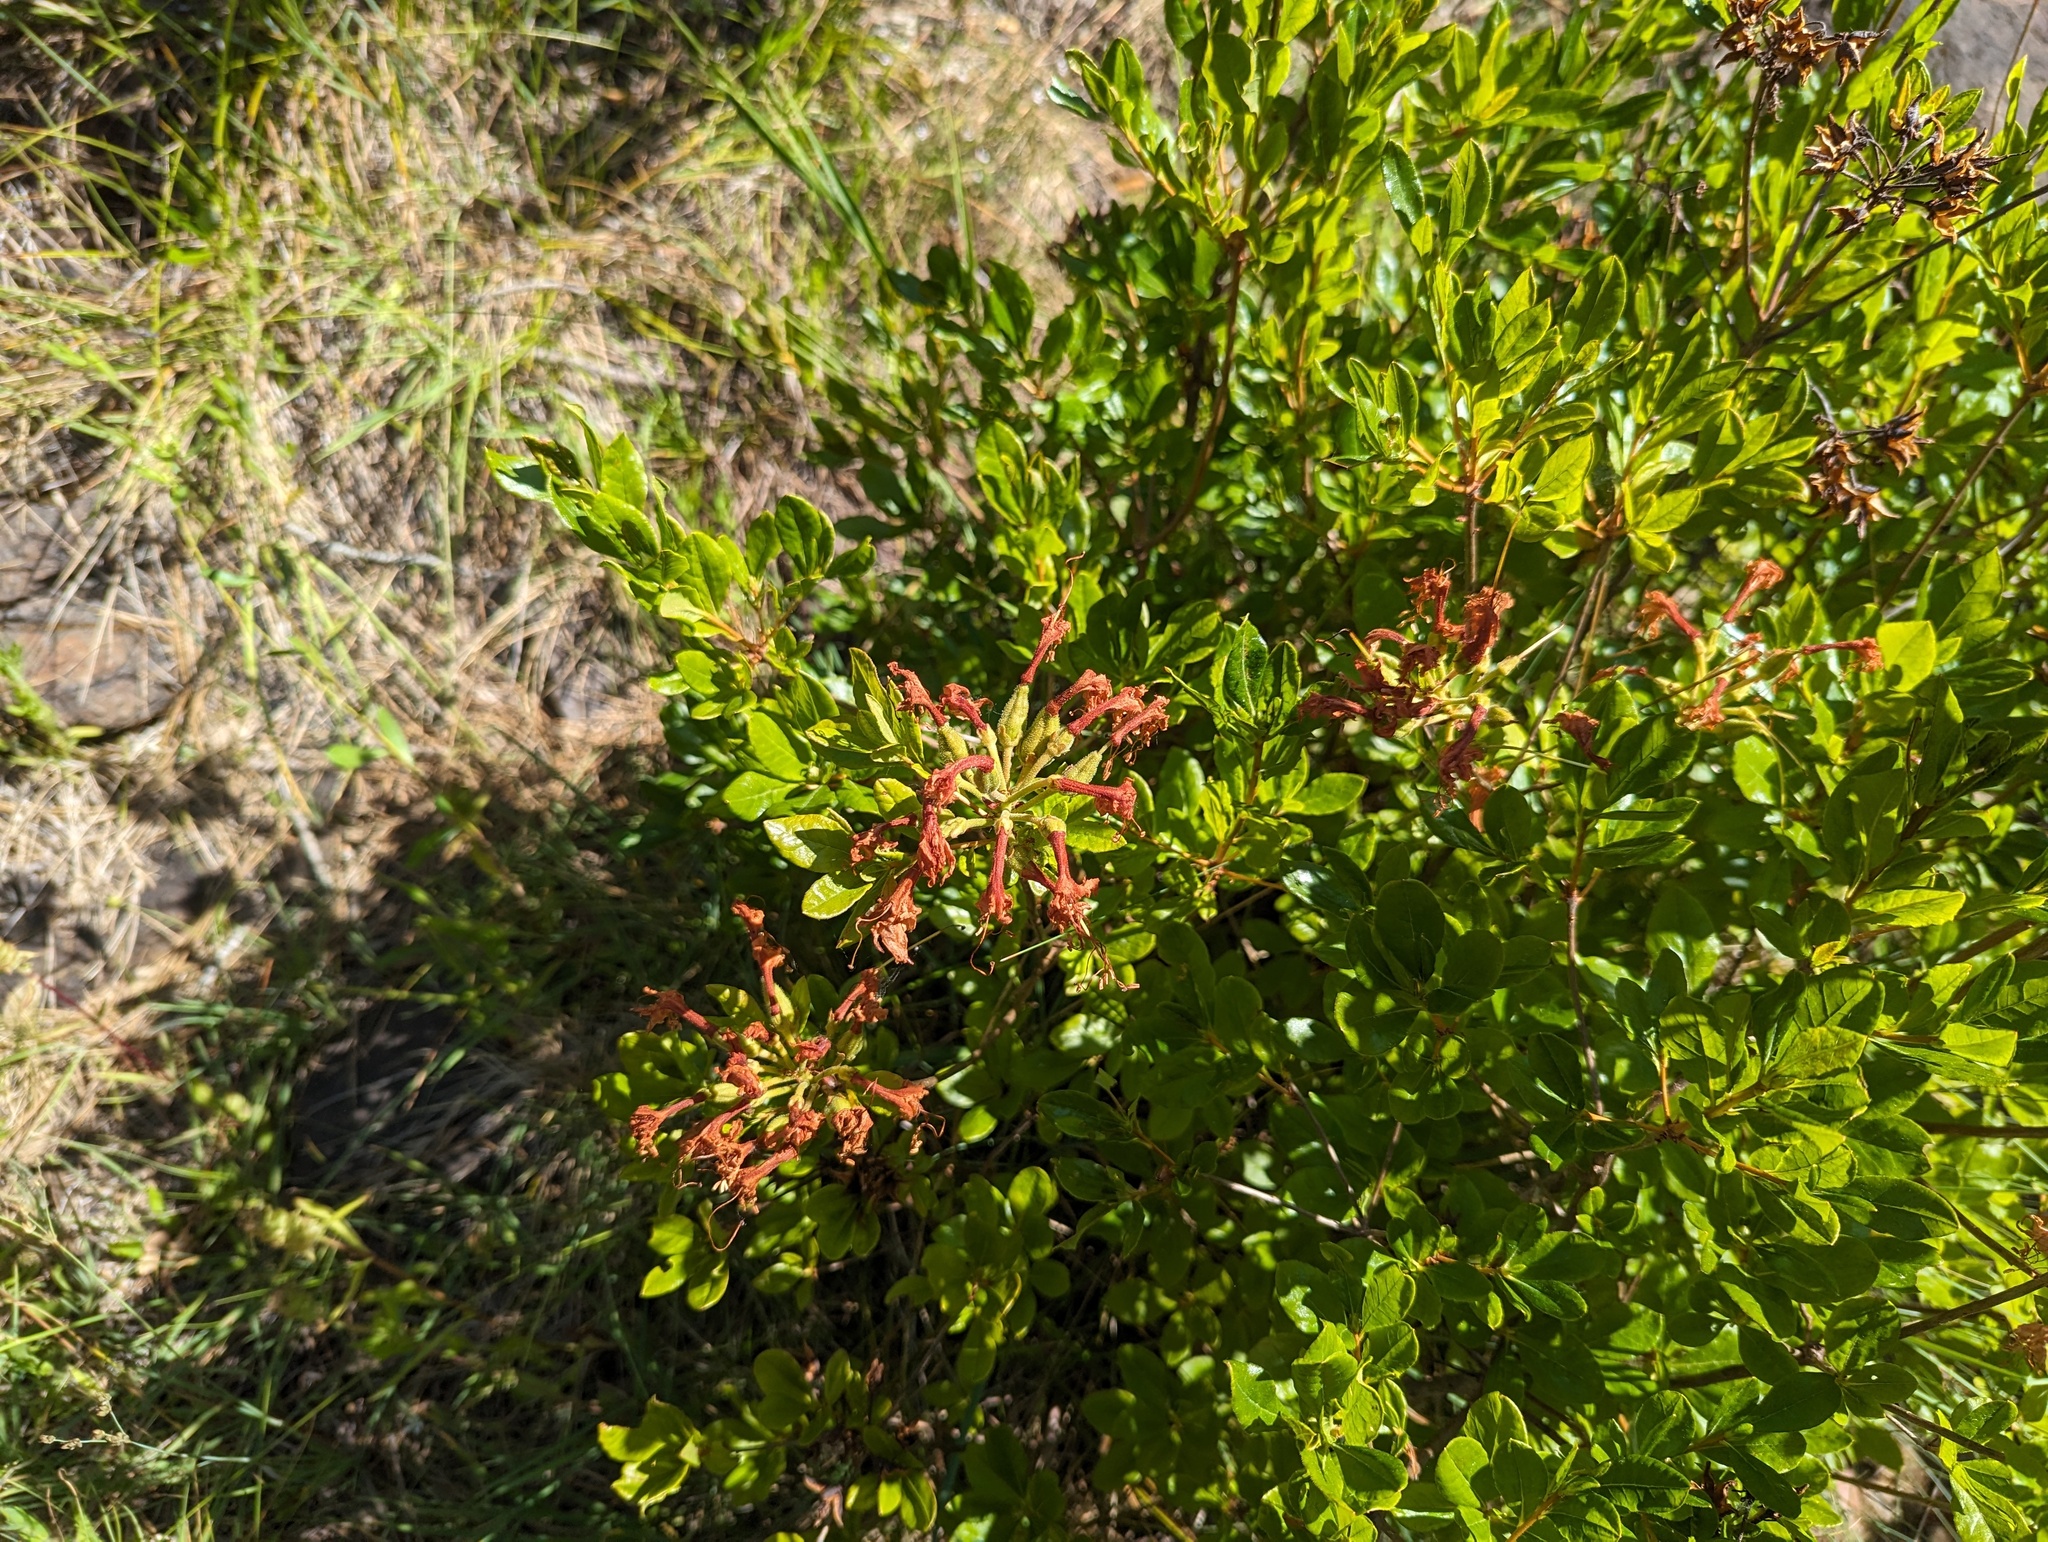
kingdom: Plantae
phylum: Tracheophyta
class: Magnoliopsida
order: Ericales
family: Ericaceae
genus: Rhododendron
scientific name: Rhododendron occidentale
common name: Western azalea
